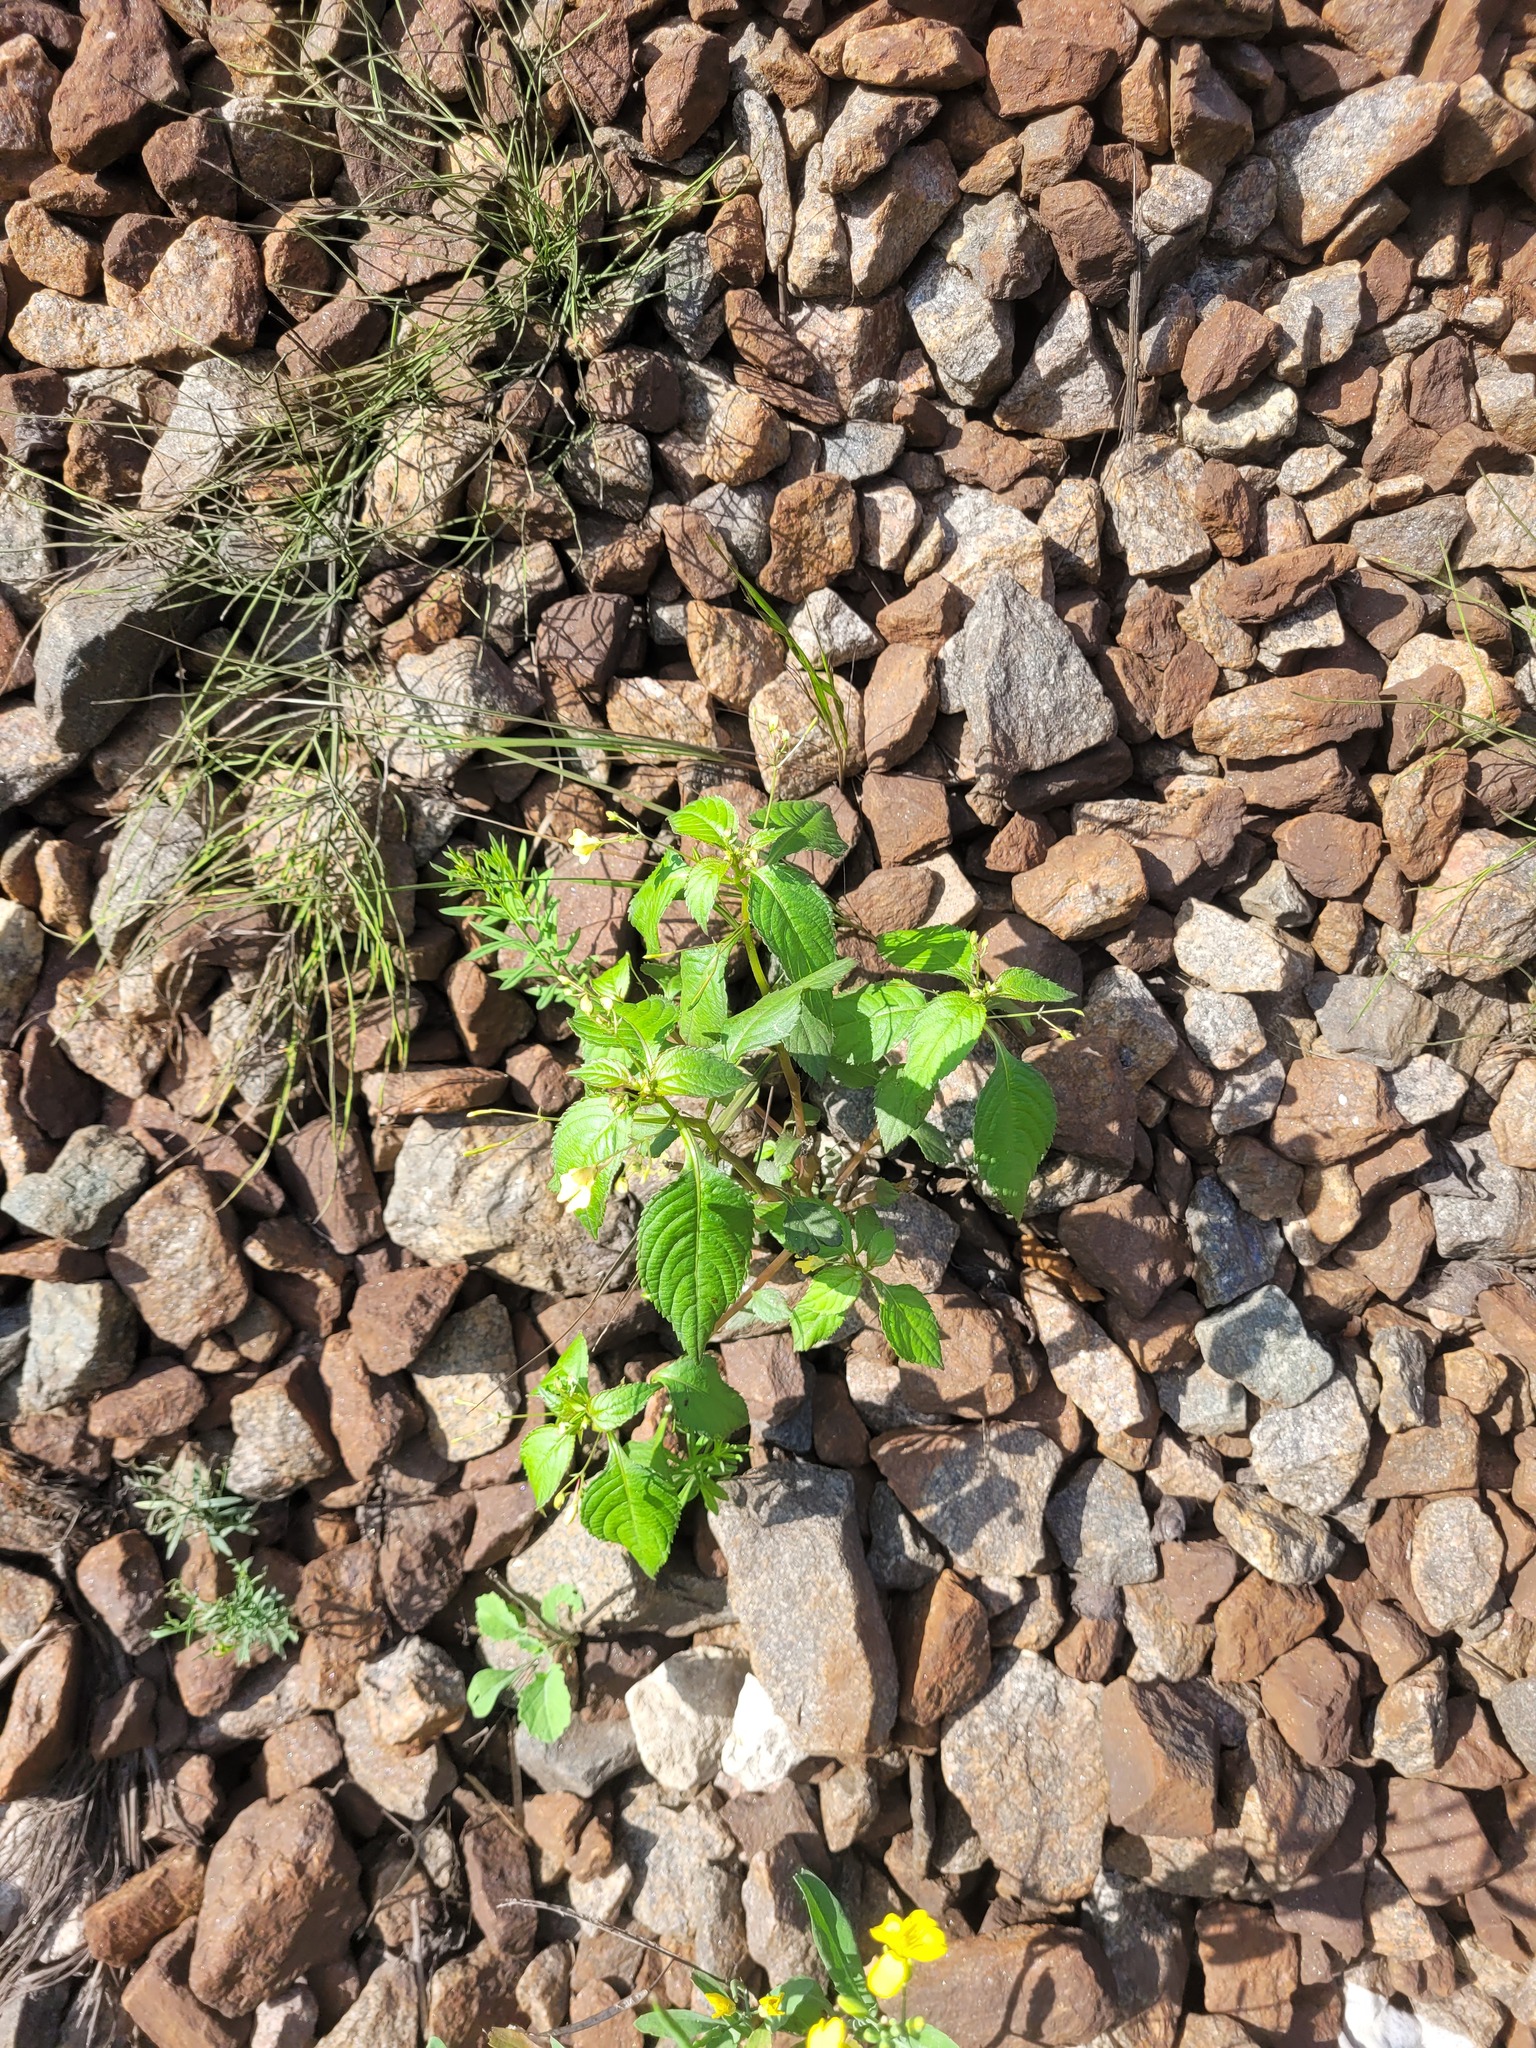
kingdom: Plantae
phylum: Tracheophyta
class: Magnoliopsida
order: Ericales
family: Balsaminaceae
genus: Impatiens
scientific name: Impatiens parviflora
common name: Small balsam
